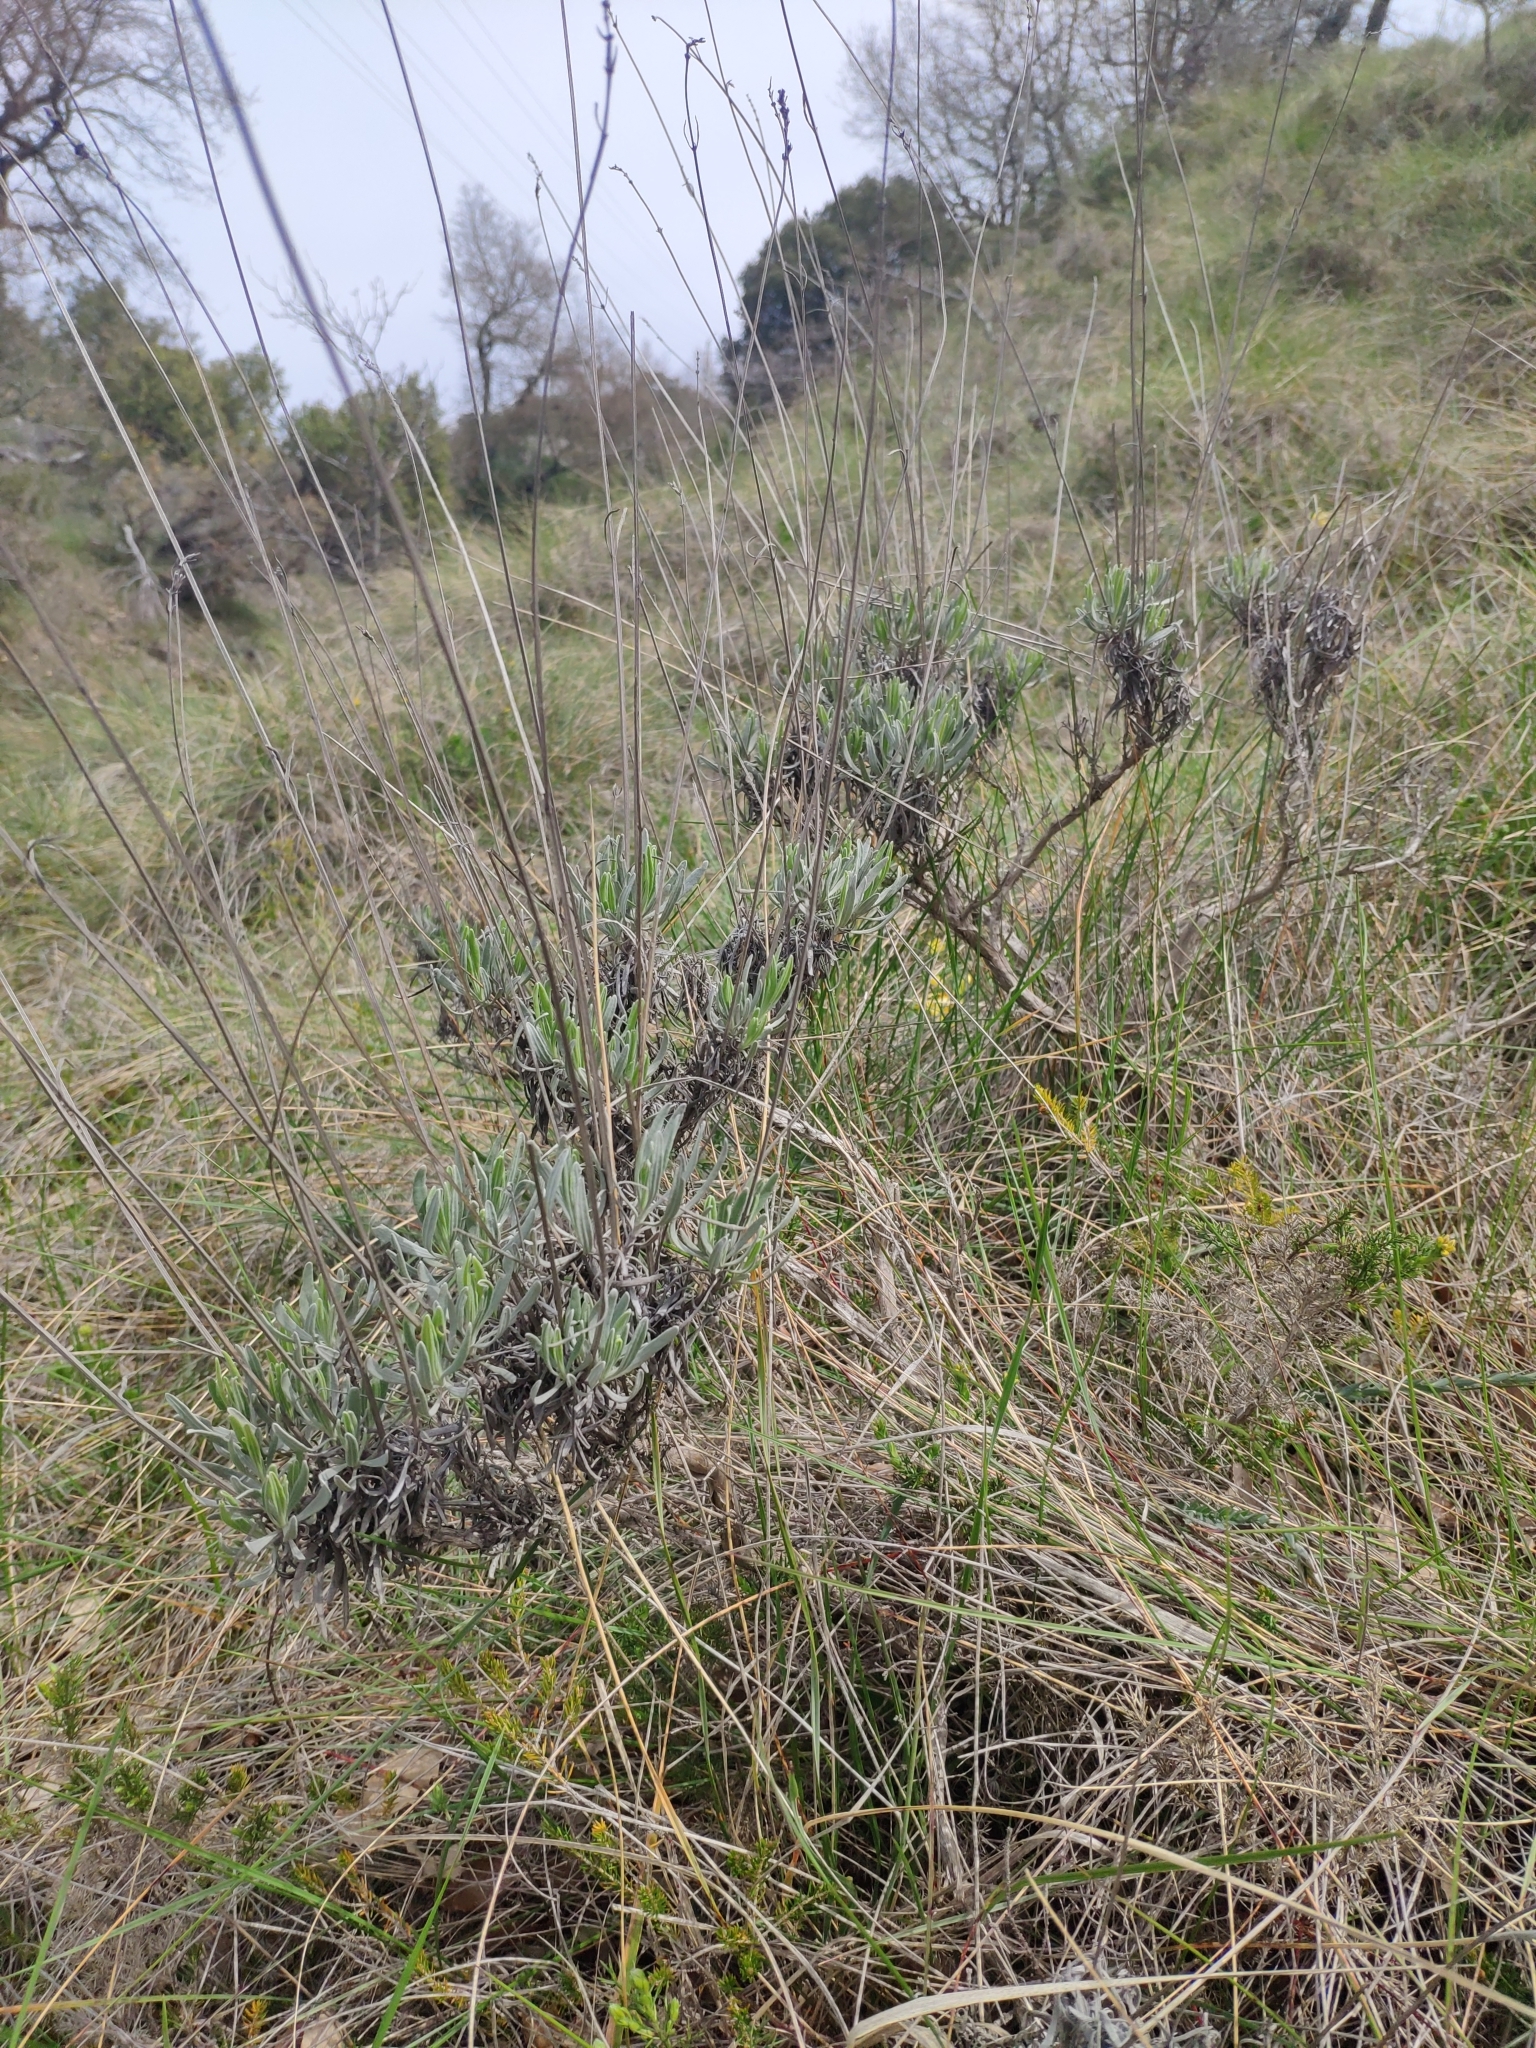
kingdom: Plantae
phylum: Tracheophyta
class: Magnoliopsida
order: Lamiales
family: Lamiaceae
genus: Lavandula
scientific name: Lavandula latifolia
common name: Spike lavendar
